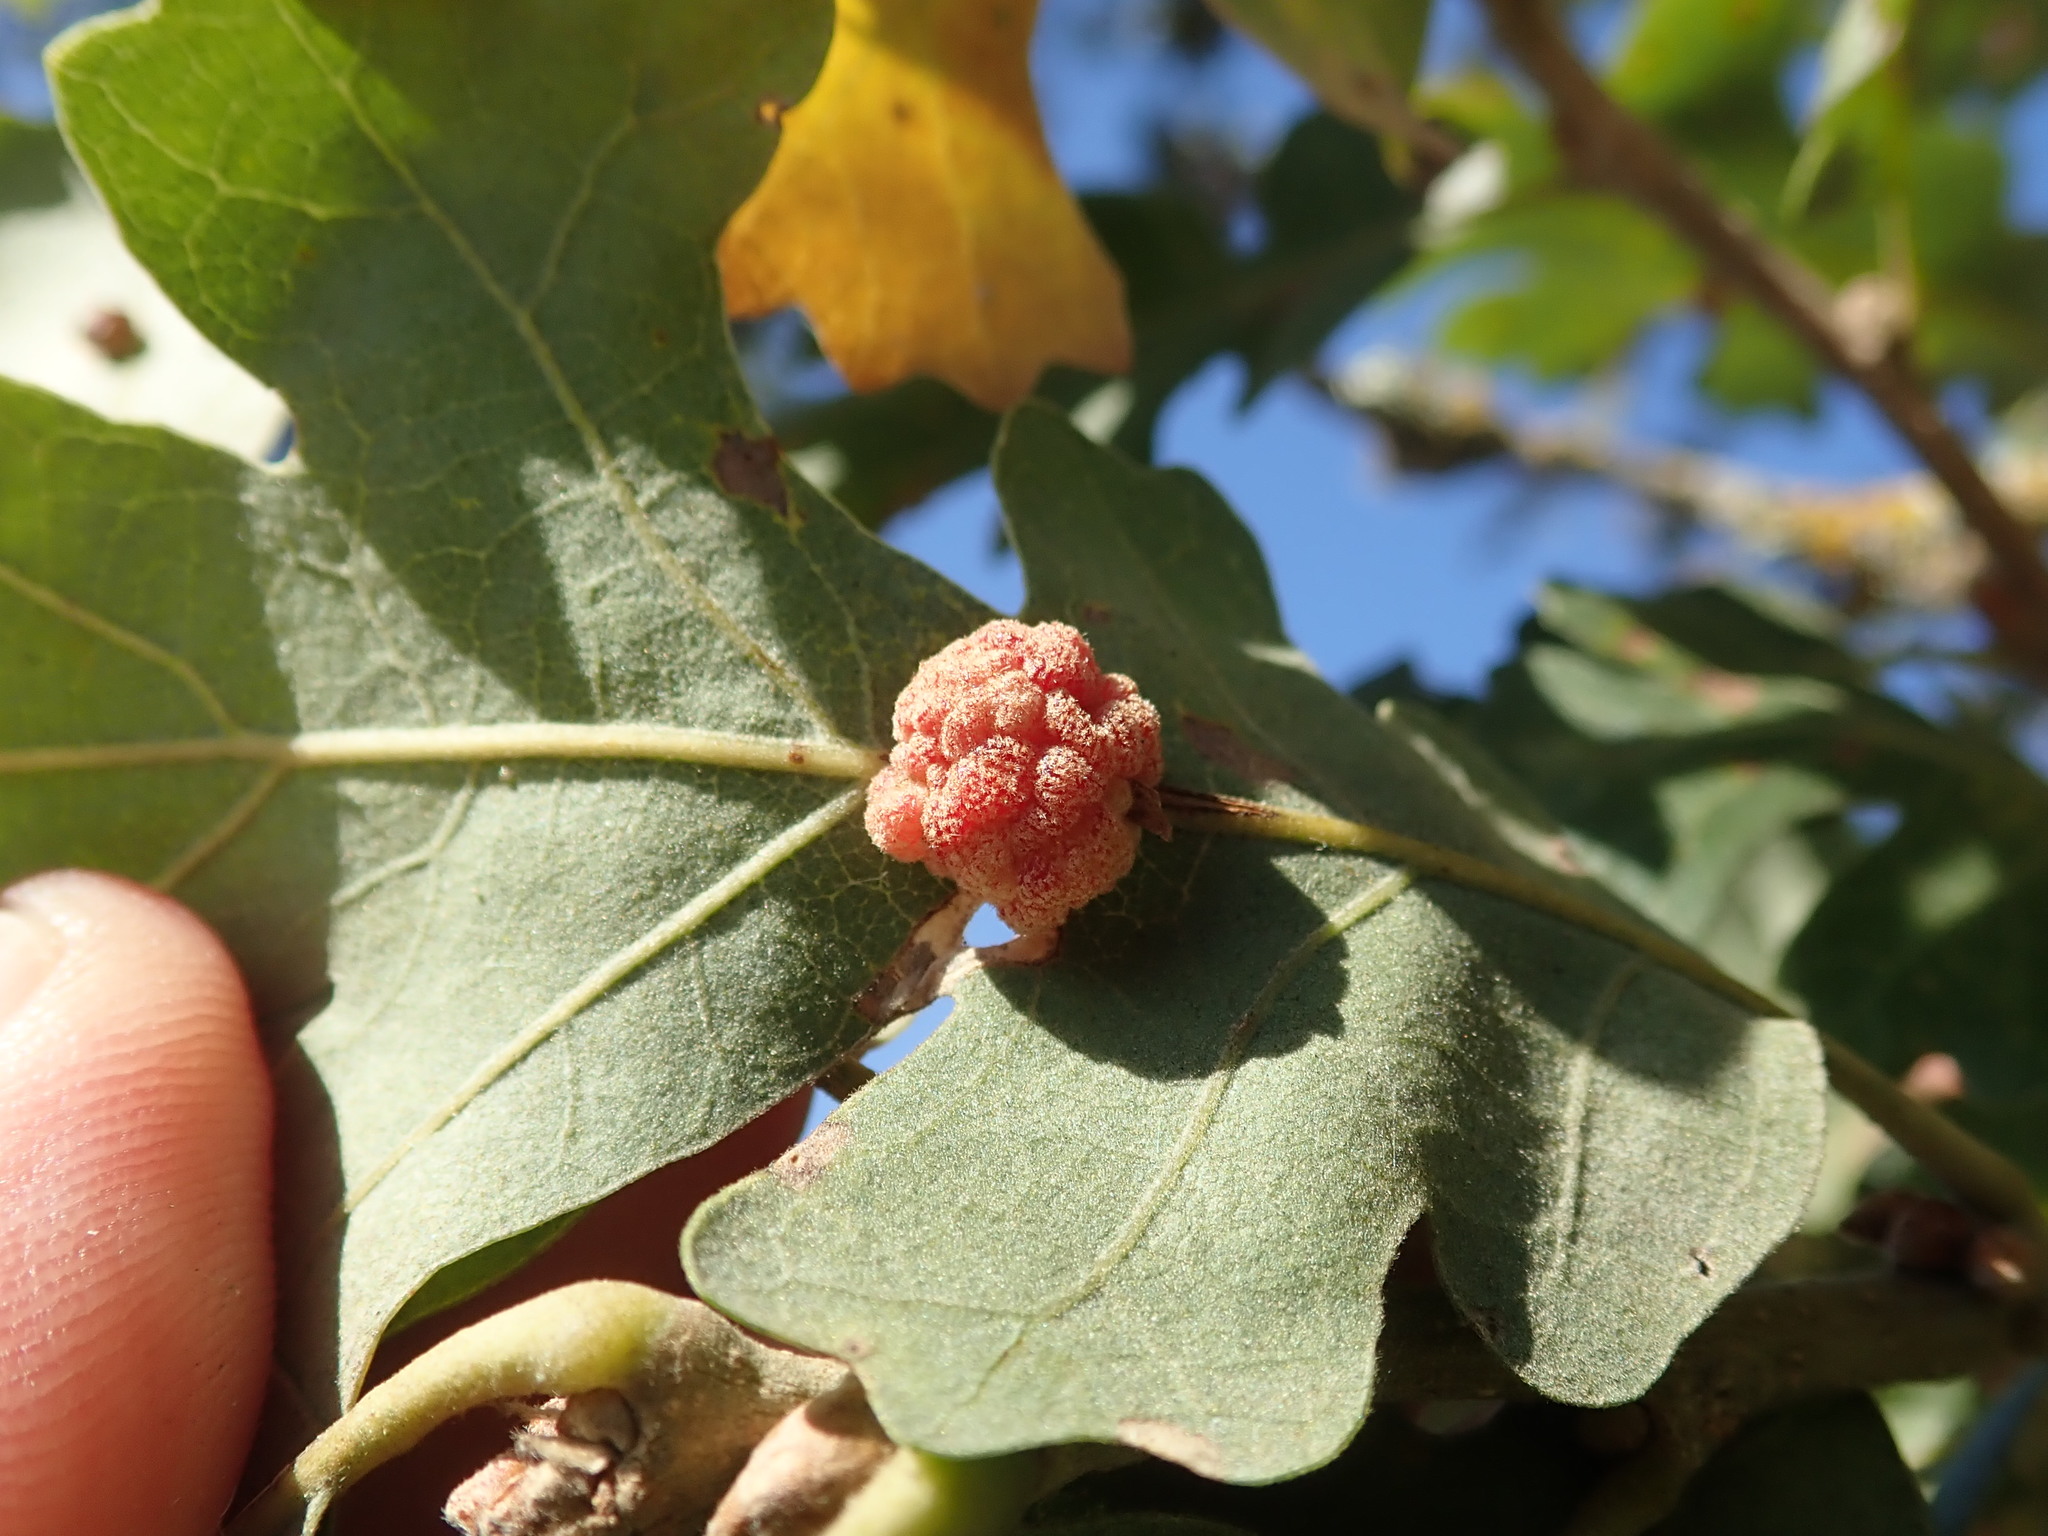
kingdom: Animalia
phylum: Arthropoda
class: Insecta
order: Hymenoptera
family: Cynipidae
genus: Andricus
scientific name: Andricus
